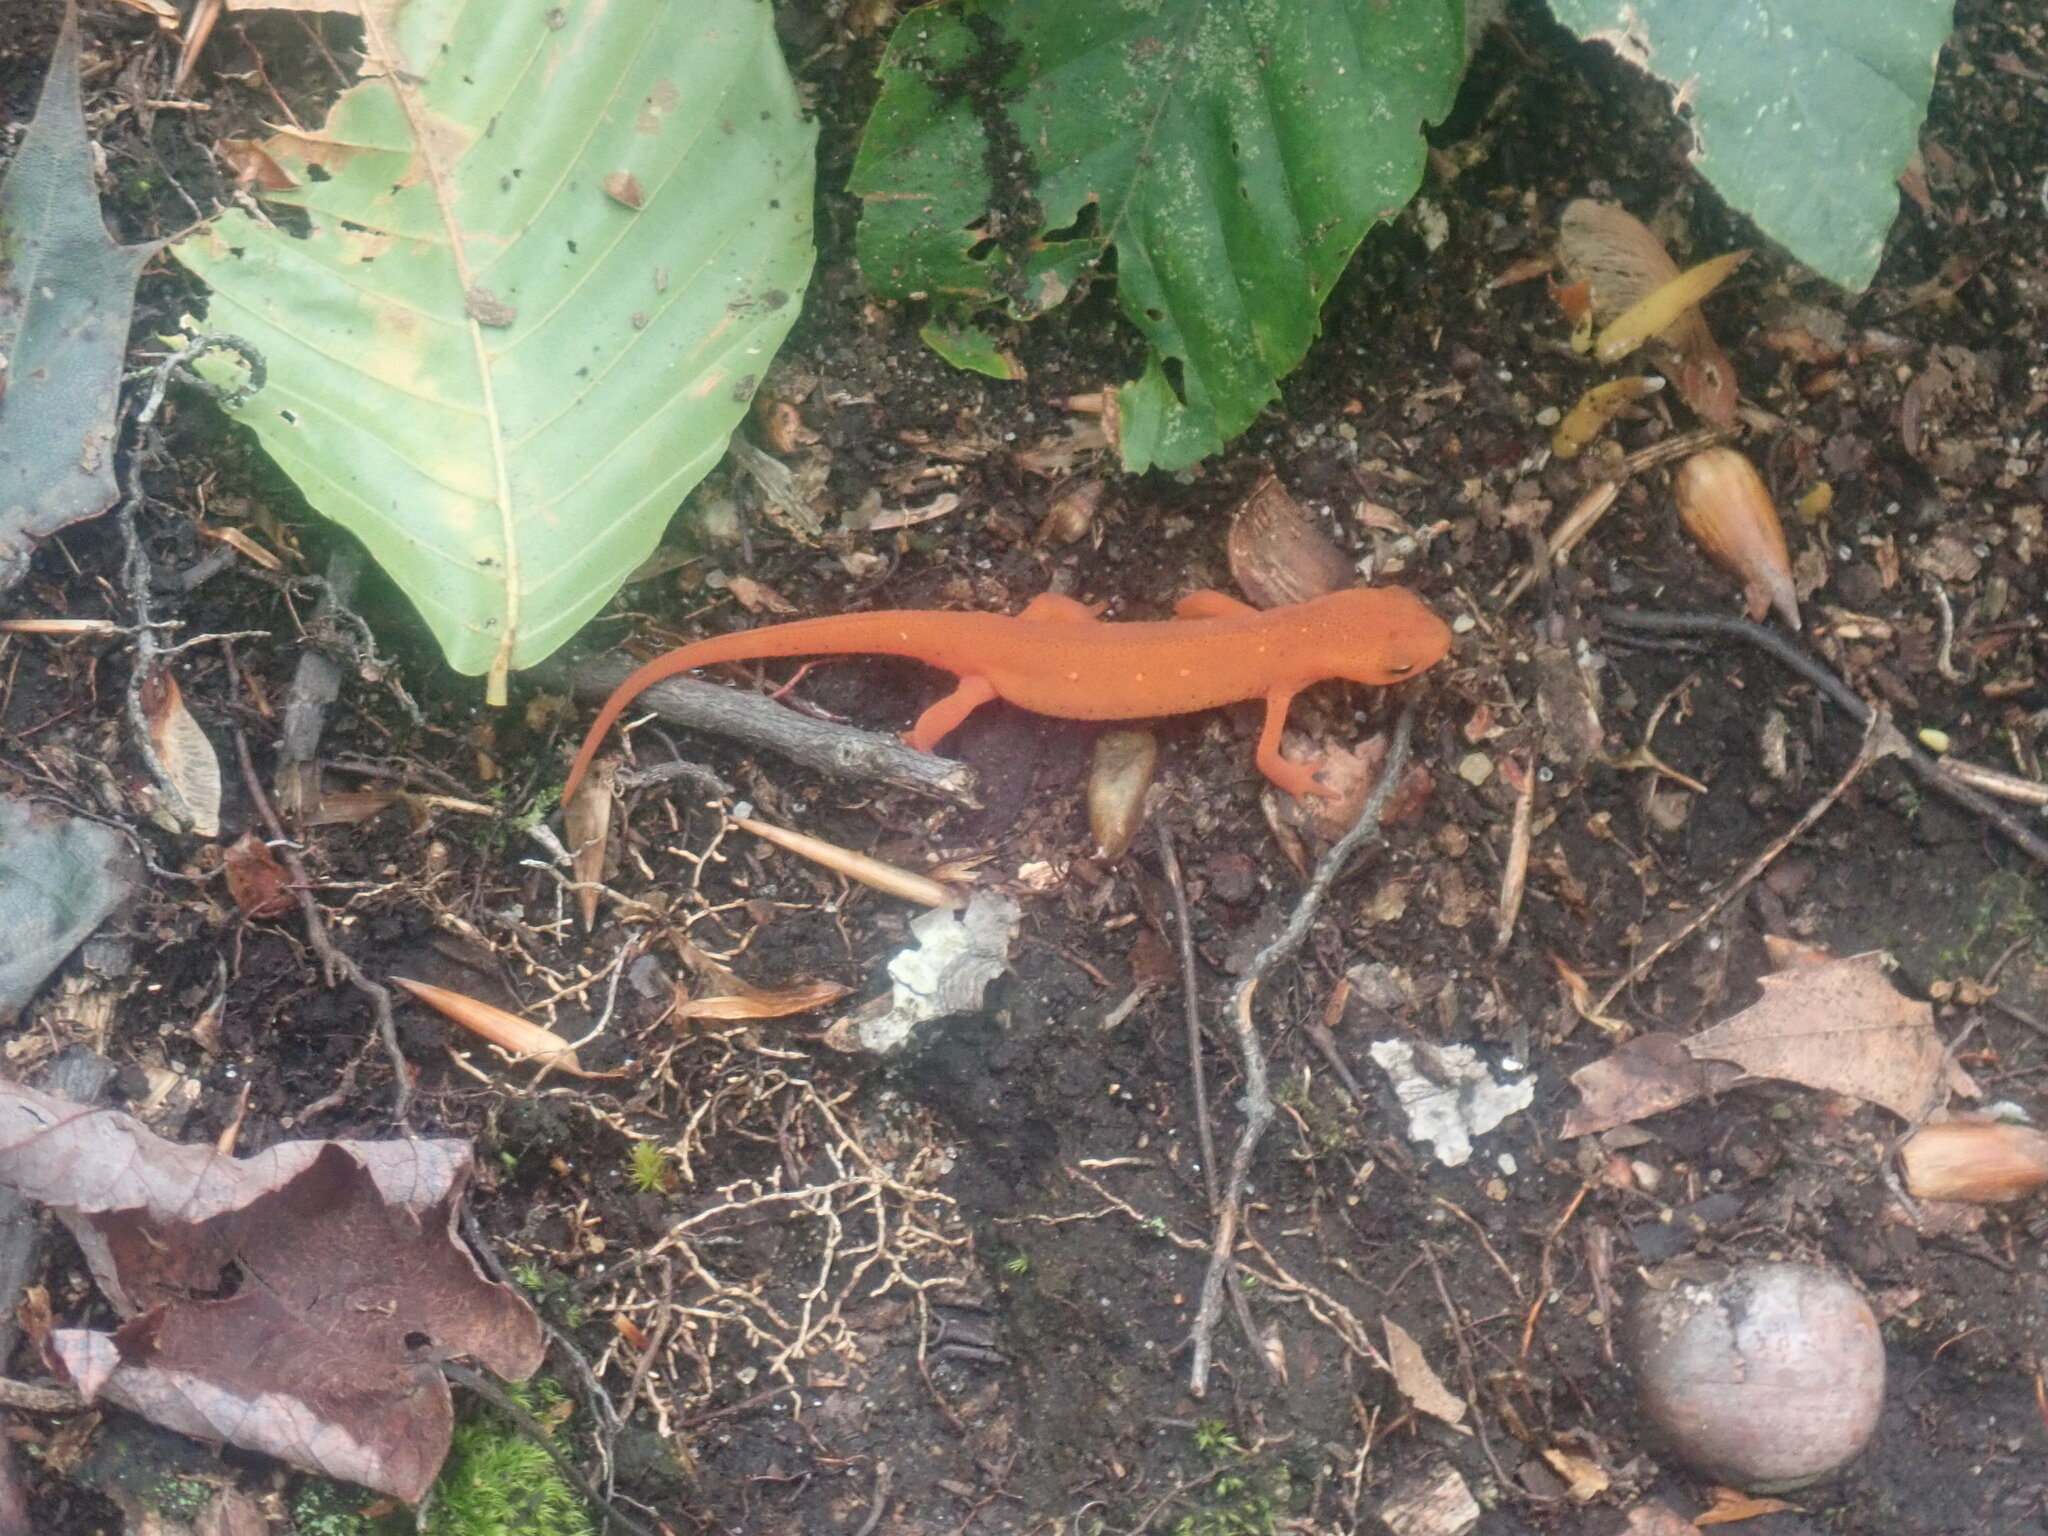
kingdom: Animalia
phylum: Chordata
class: Amphibia
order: Caudata
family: Salamandridae
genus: Notophthalmus
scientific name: Notophthalmus viridescens
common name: Eastern newt
